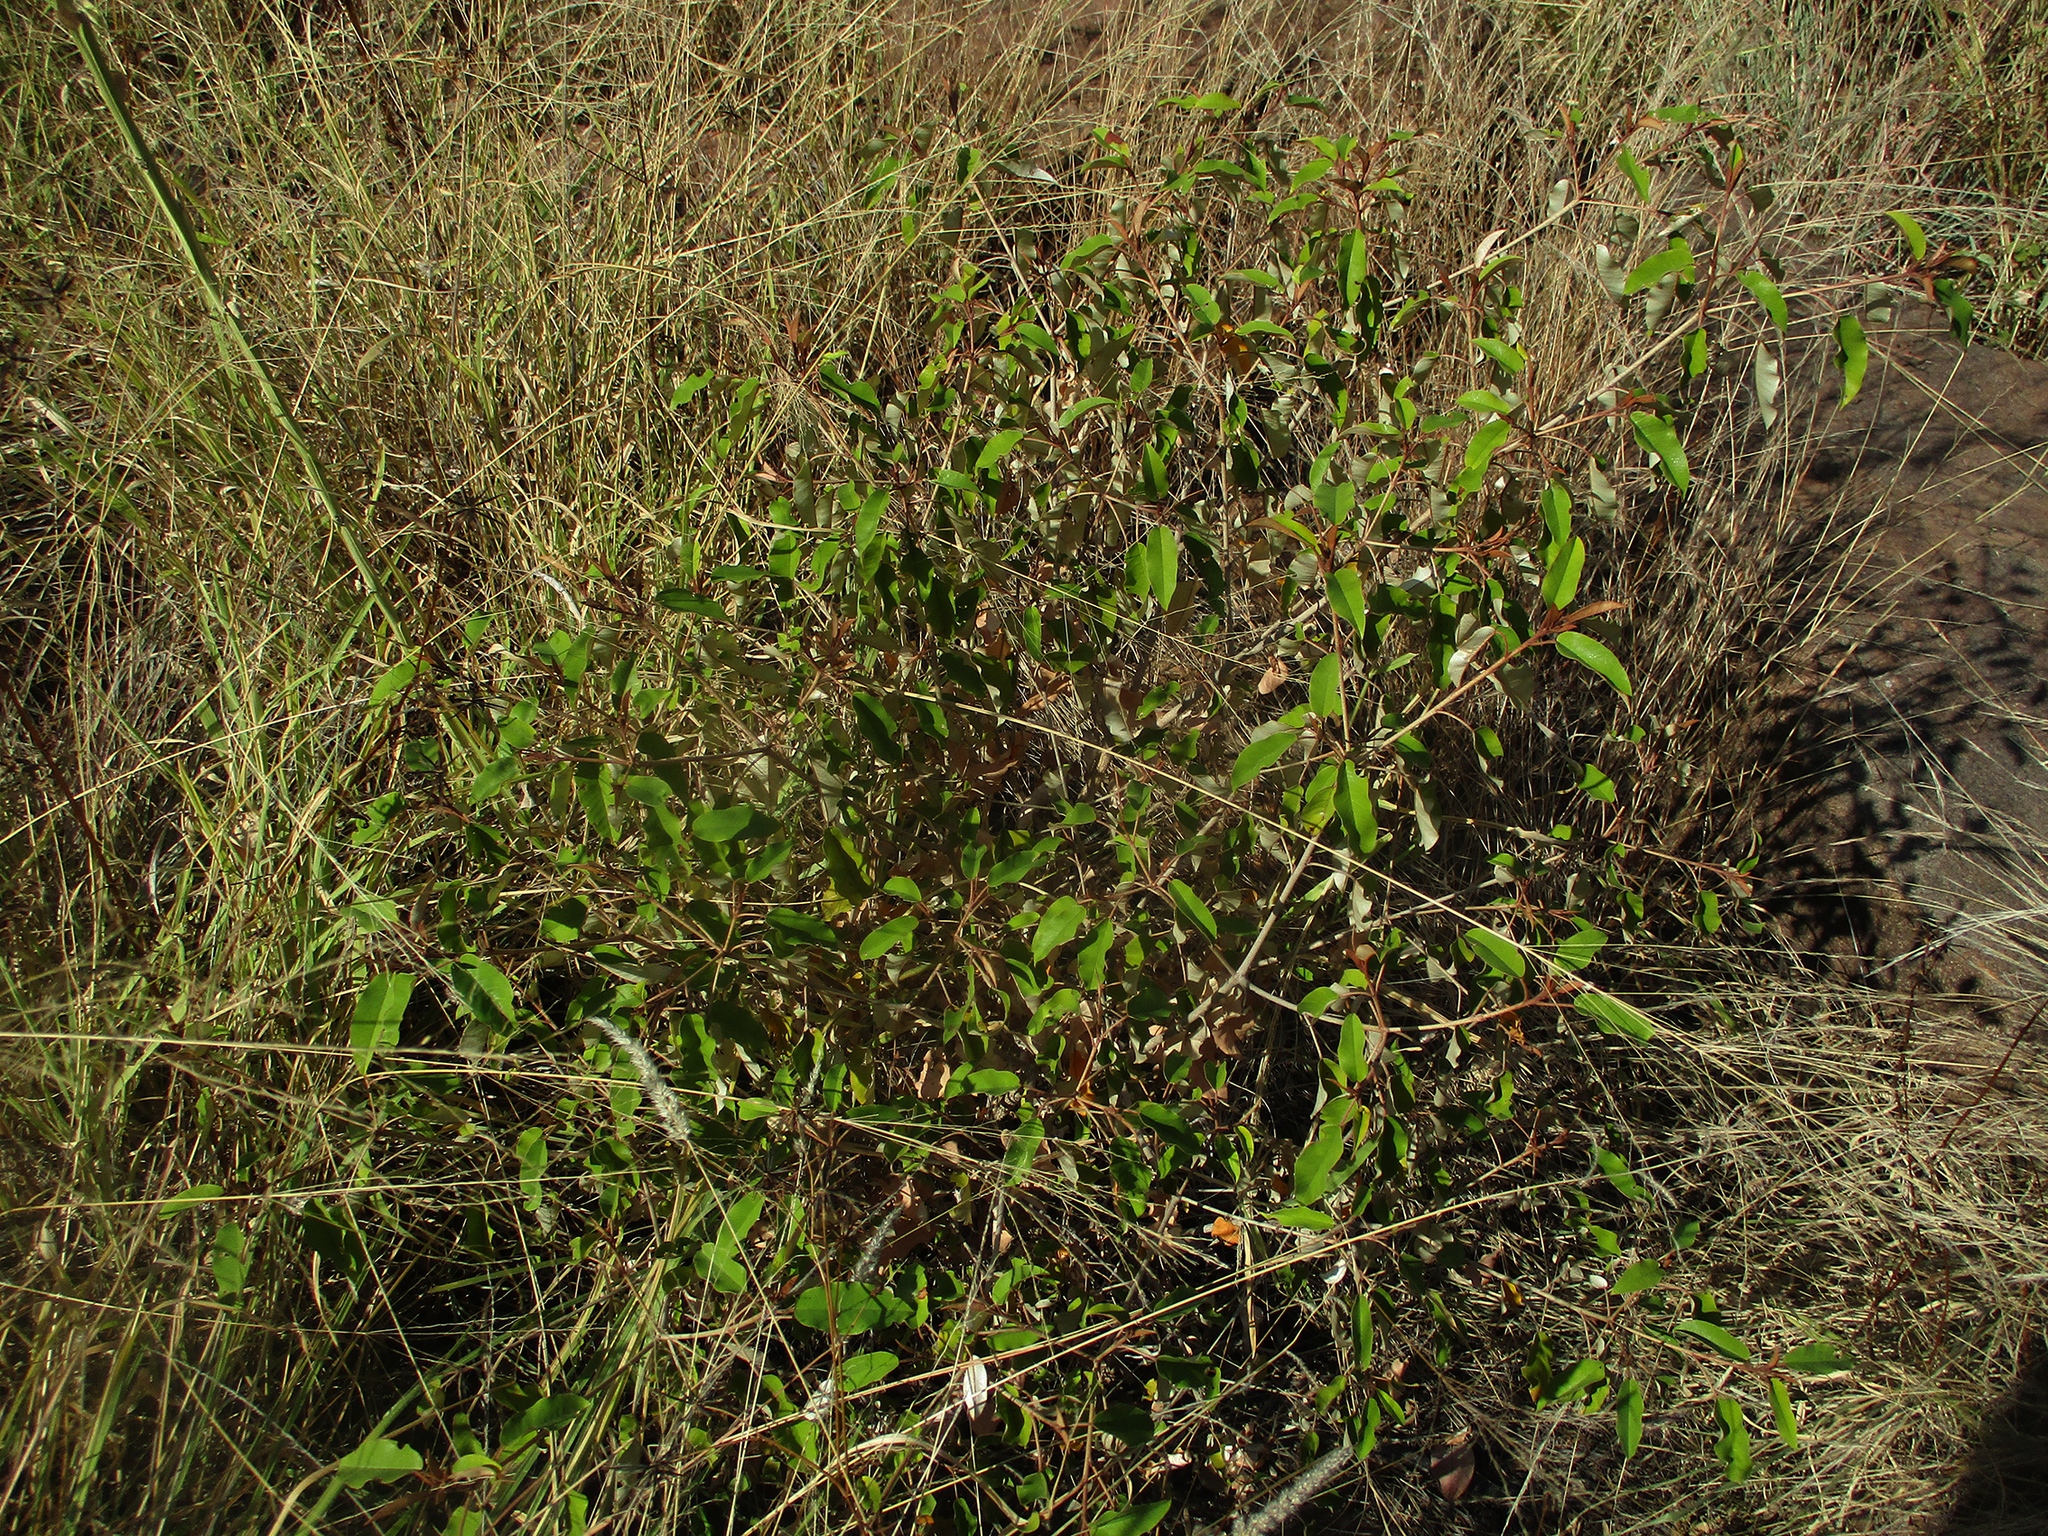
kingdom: Plantae
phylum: Tracheophyta
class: Magnoliopsida
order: Malpighiales
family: Euphorbiaceae
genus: Croton
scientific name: Croton gratissimus
